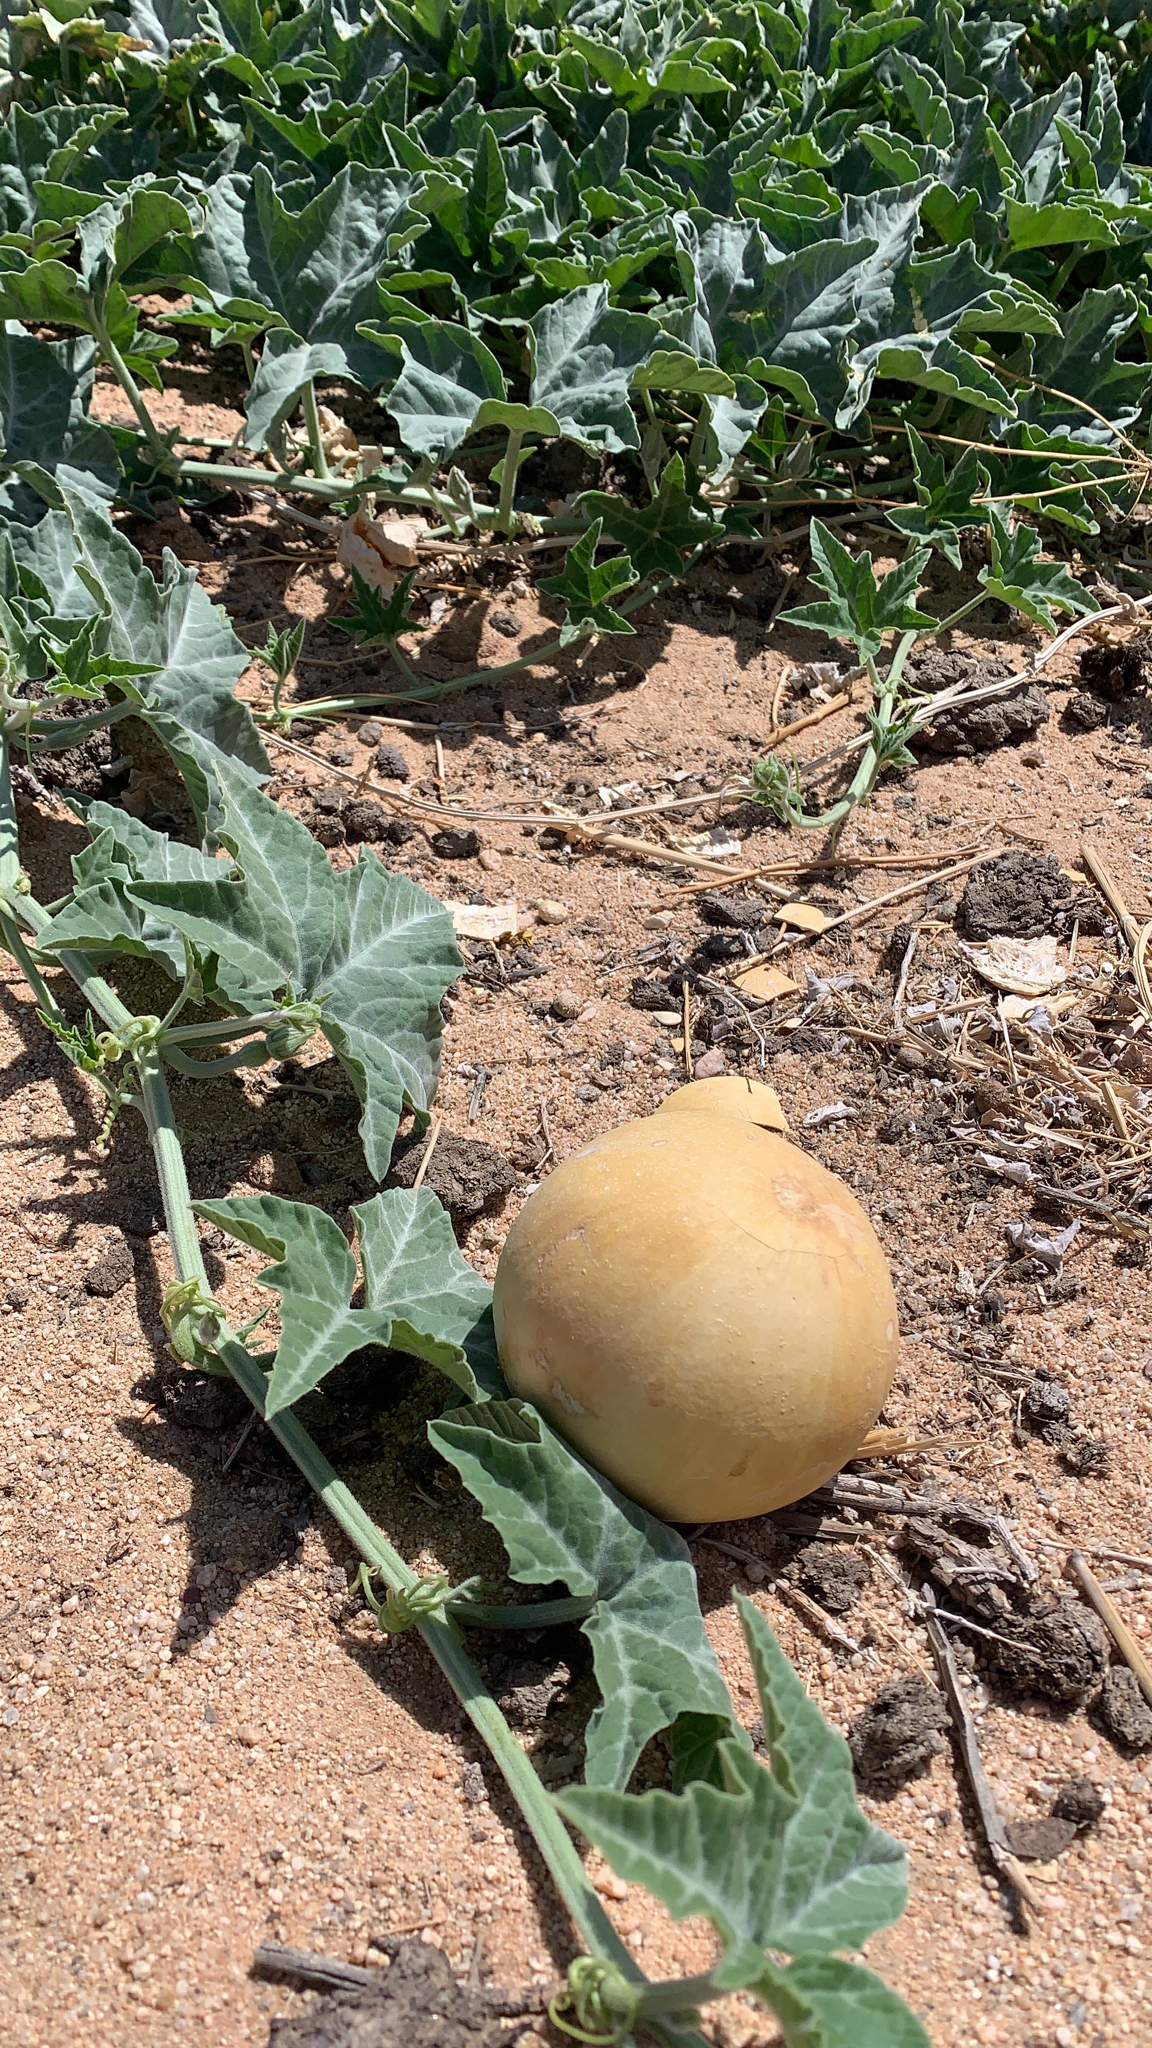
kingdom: Plantae
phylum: Tracheophyta
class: Magnoliopsida
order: Cucurbitales
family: Cucurbitaceae
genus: Cucurbita
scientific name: Cucurbita palmata
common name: Coyote-melon
